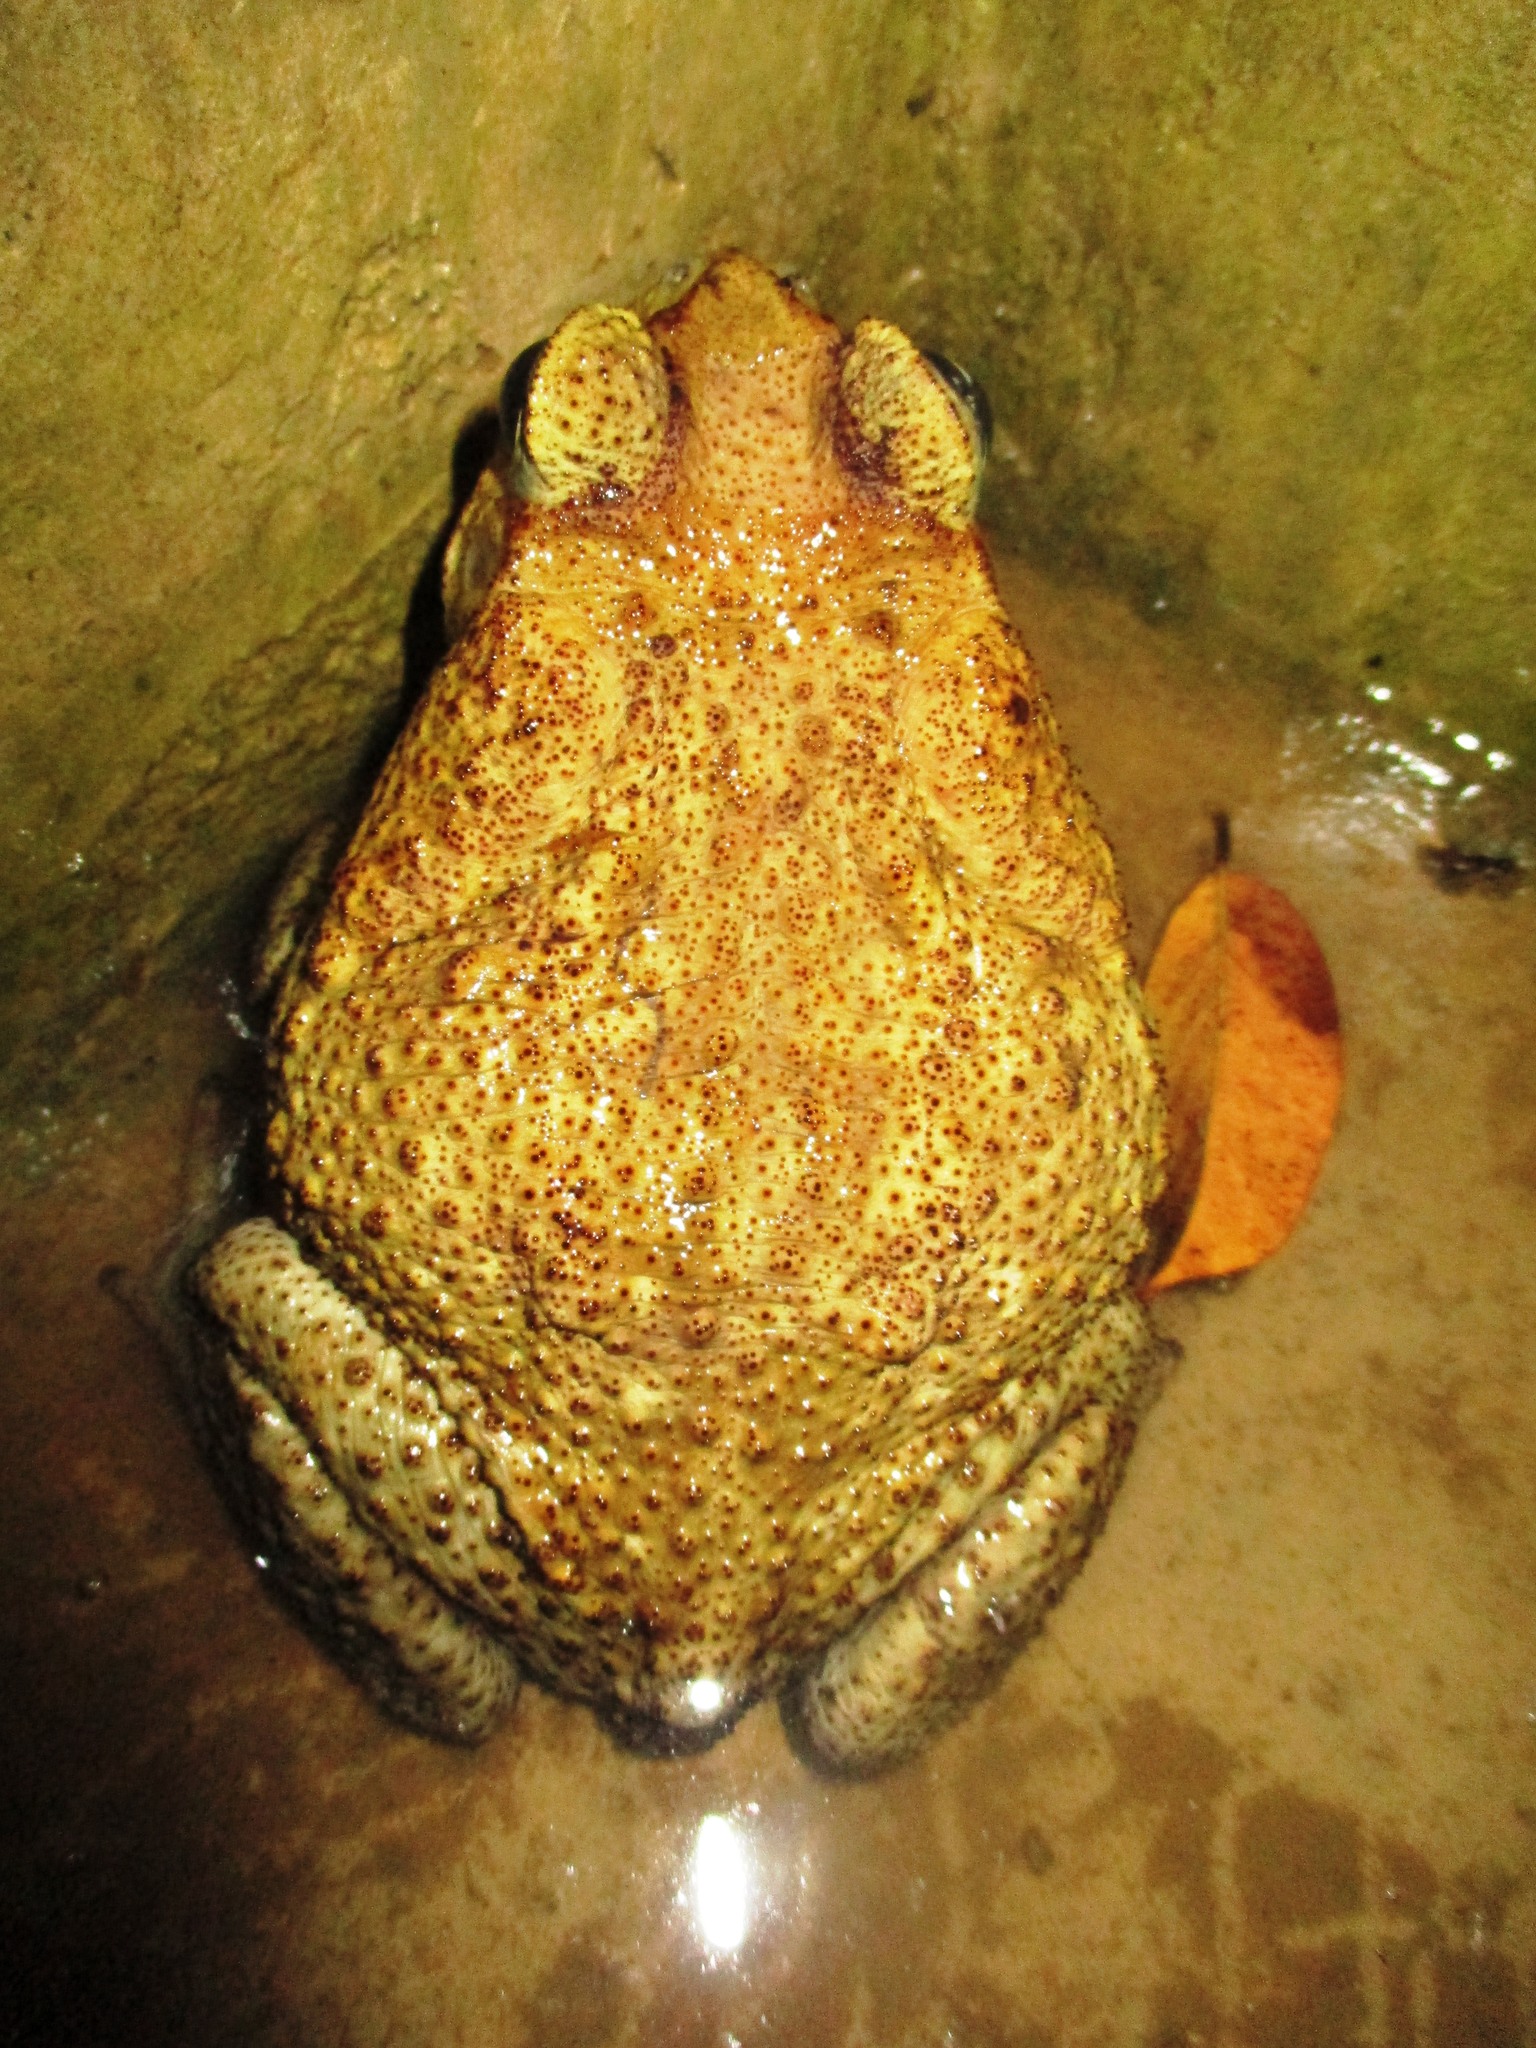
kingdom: Animalia
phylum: Chordata
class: Amphibia
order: Anura
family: Bufonidae
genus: Rhinella
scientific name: Rhinella horribilis
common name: Mesoamerican cane toad
